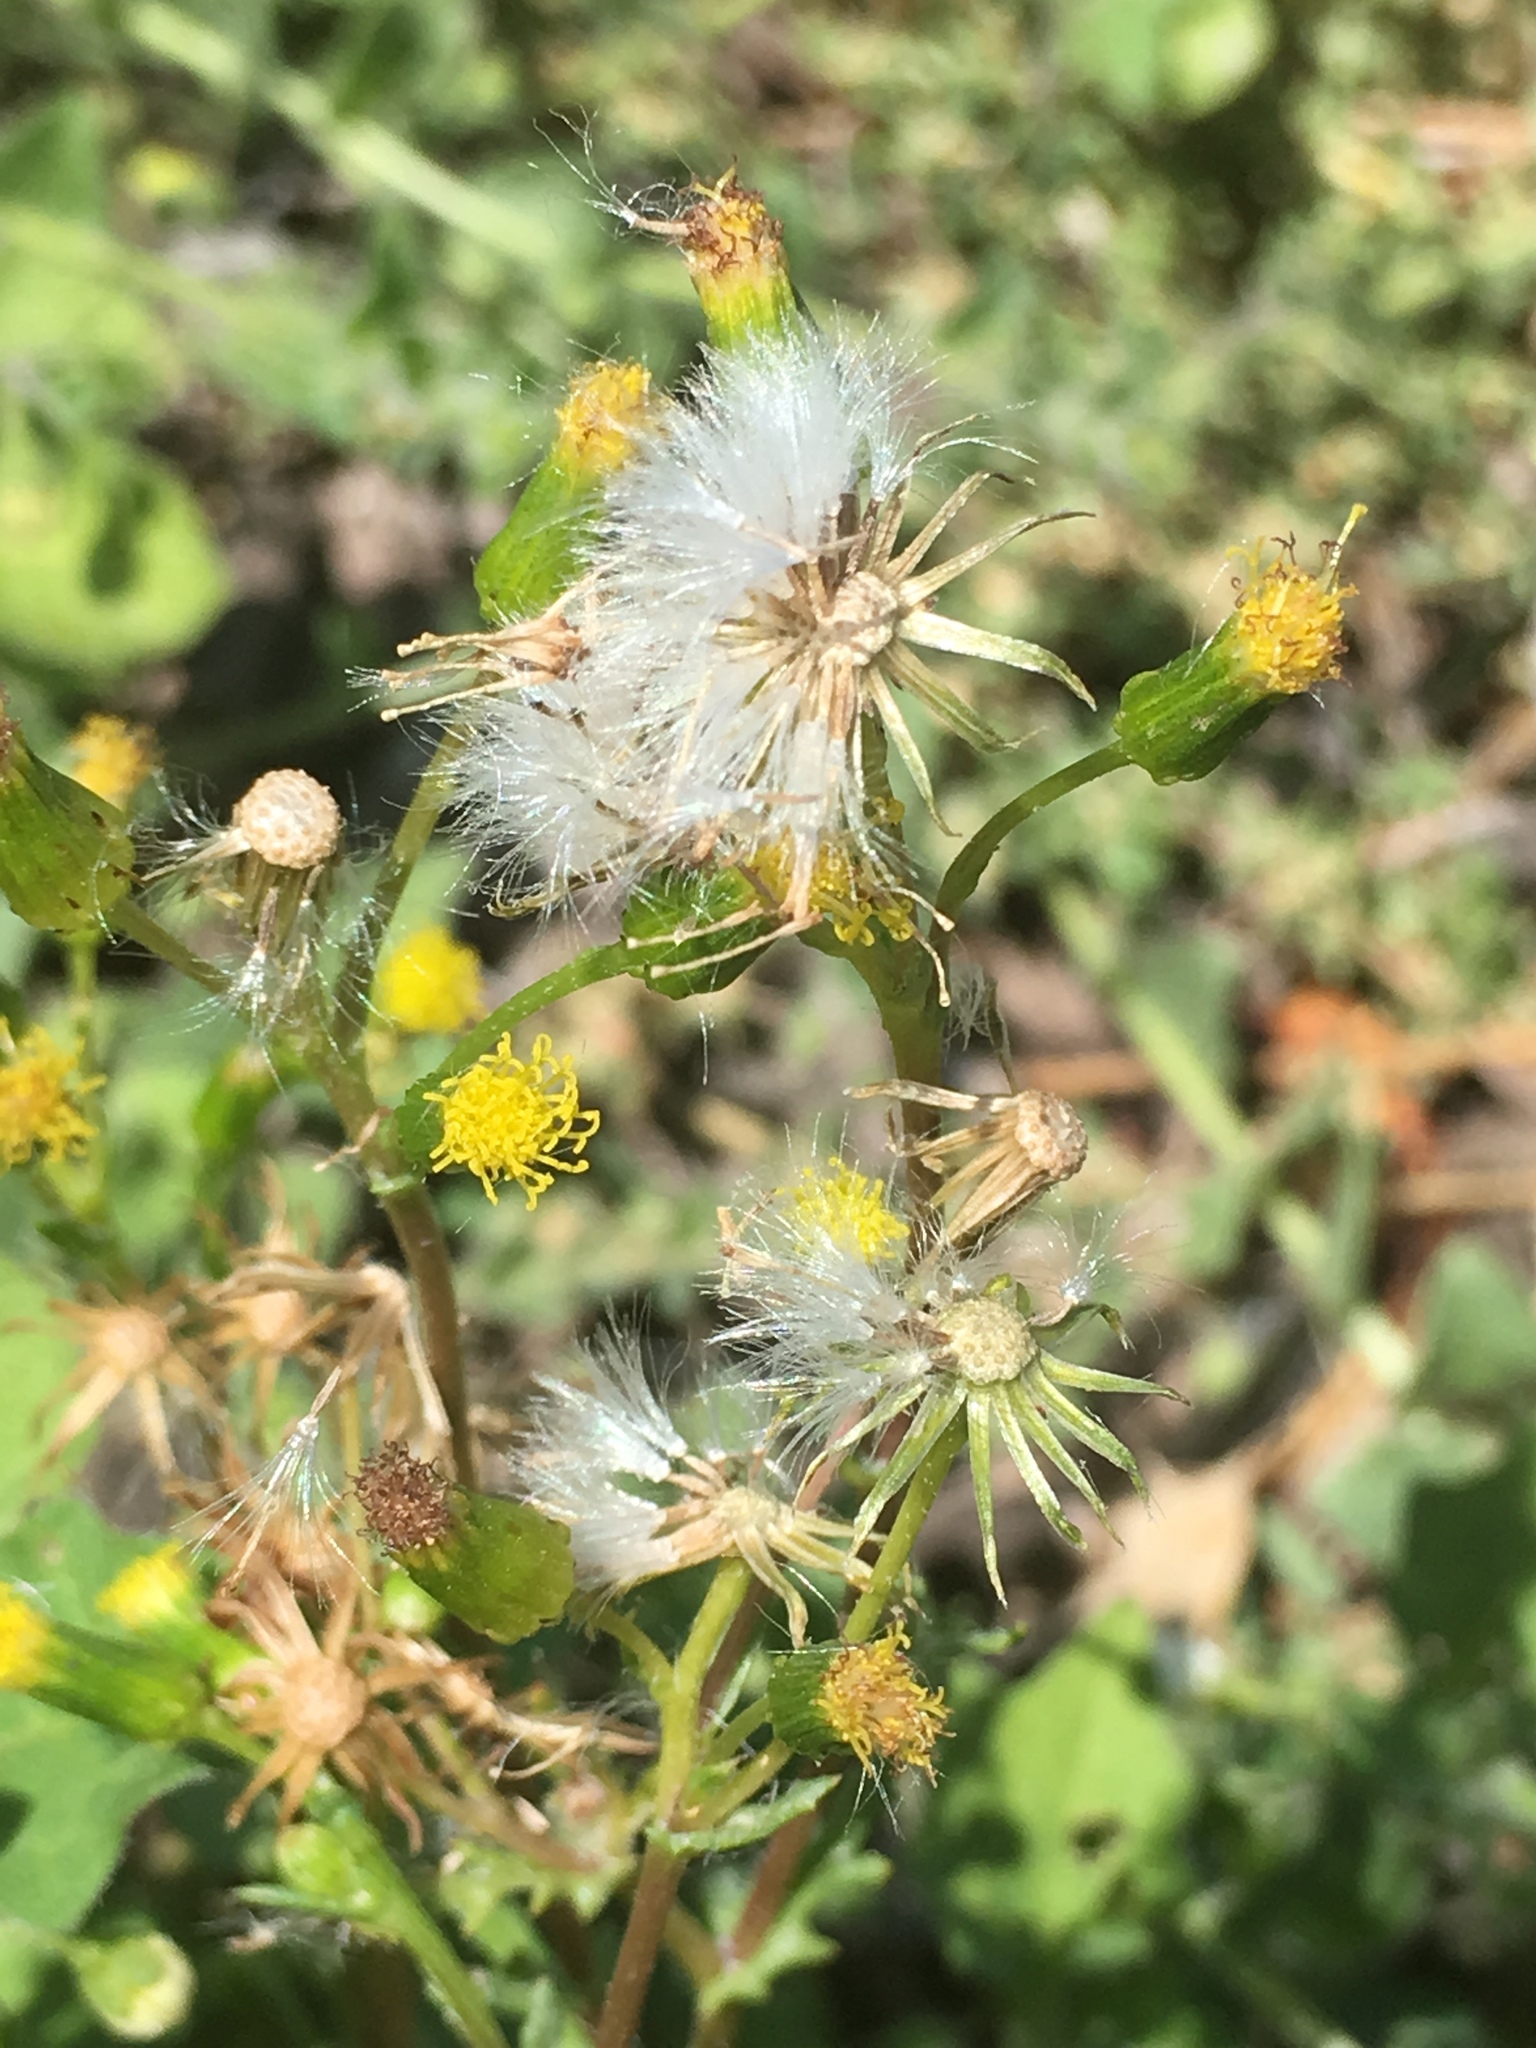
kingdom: Plantae
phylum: Tracheophyta
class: Magnoliopsida
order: Asterales
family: Asteraceae
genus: Senecio
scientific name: Senecio vulgaris
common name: Old-man-in-the-spring
